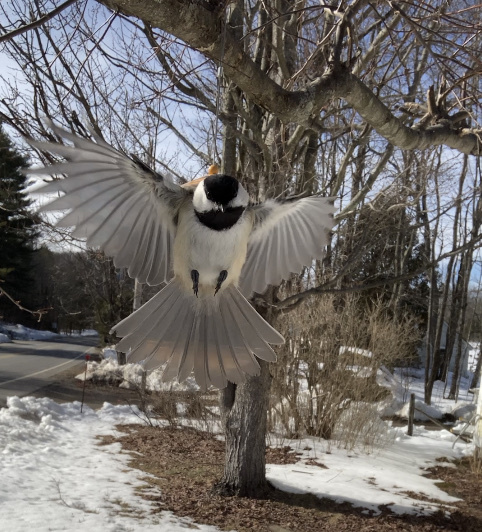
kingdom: Animalia
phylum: Chordata
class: Aves
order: Passeriformes
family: Paridae
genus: Poecile
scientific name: Poecile atricapillus
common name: Black-capped chickadee
